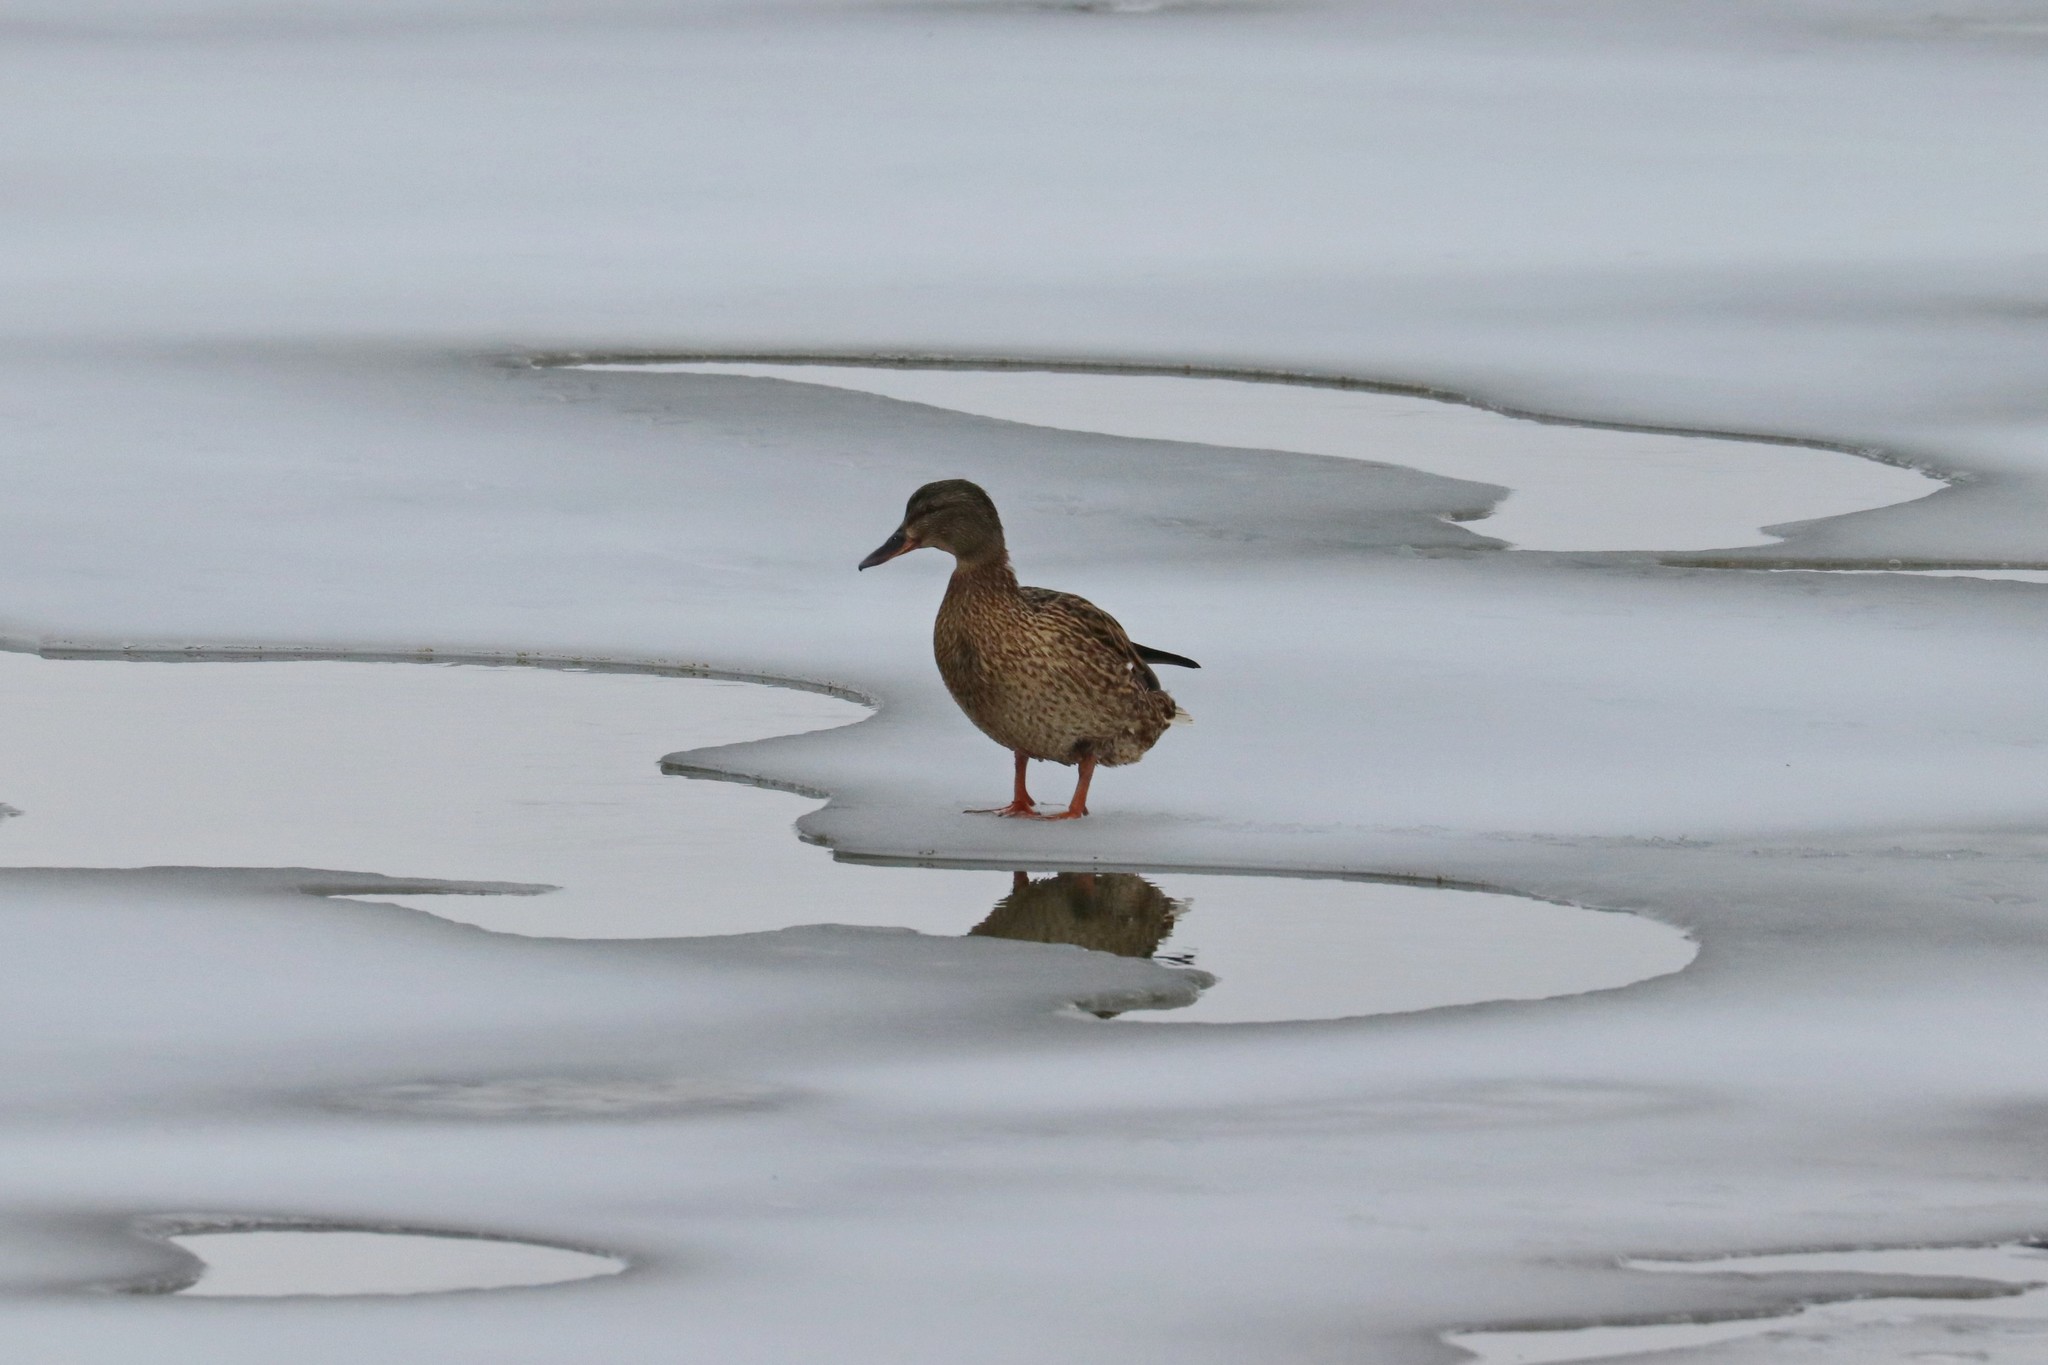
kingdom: Animalia
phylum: Chordata
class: Aves
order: Anseriformes
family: Anatidae
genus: Anas
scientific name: Anas platyrhynchos
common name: Mallard
